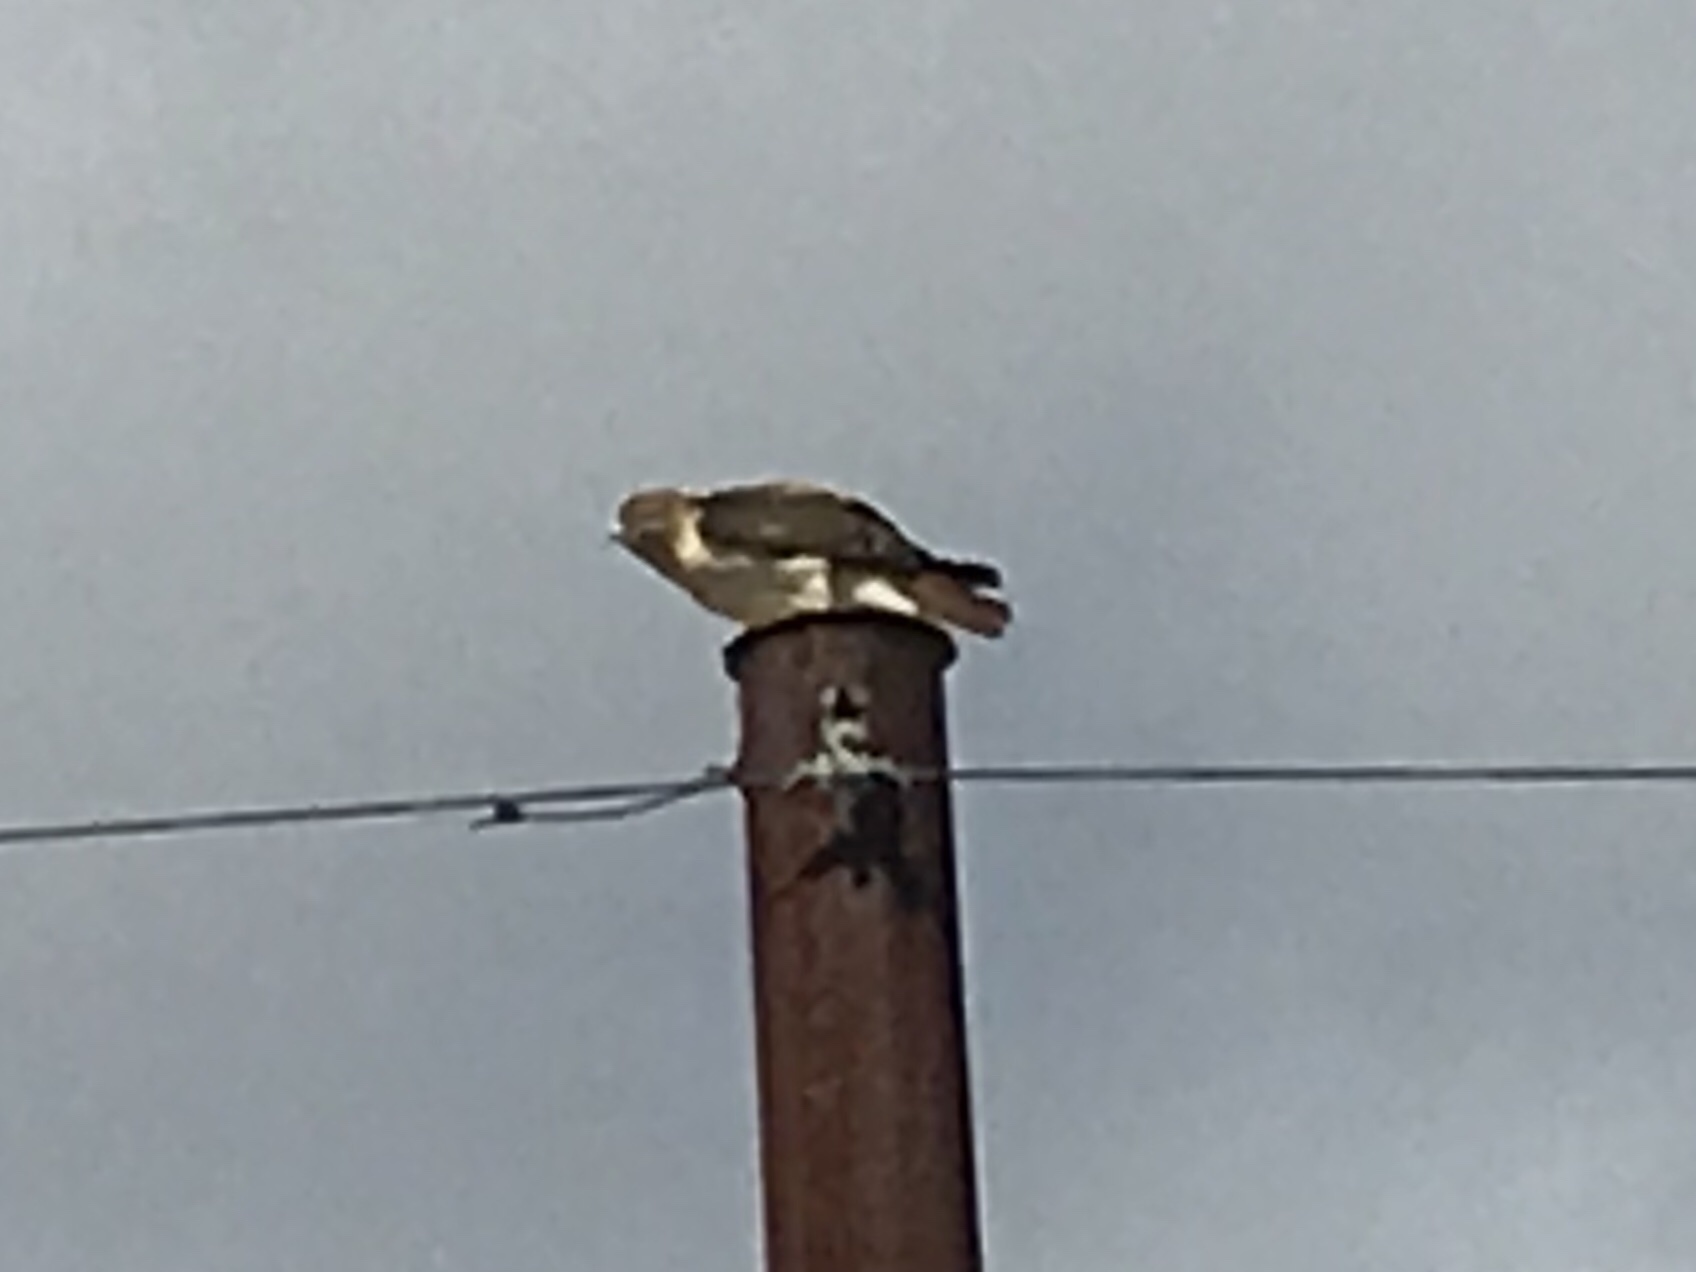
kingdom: Animalia
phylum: Chordata
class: Aves
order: Accipitriformes
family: Accipitridae
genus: Buteo
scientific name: Buteo jamaicensis
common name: Red-tailed hawk
